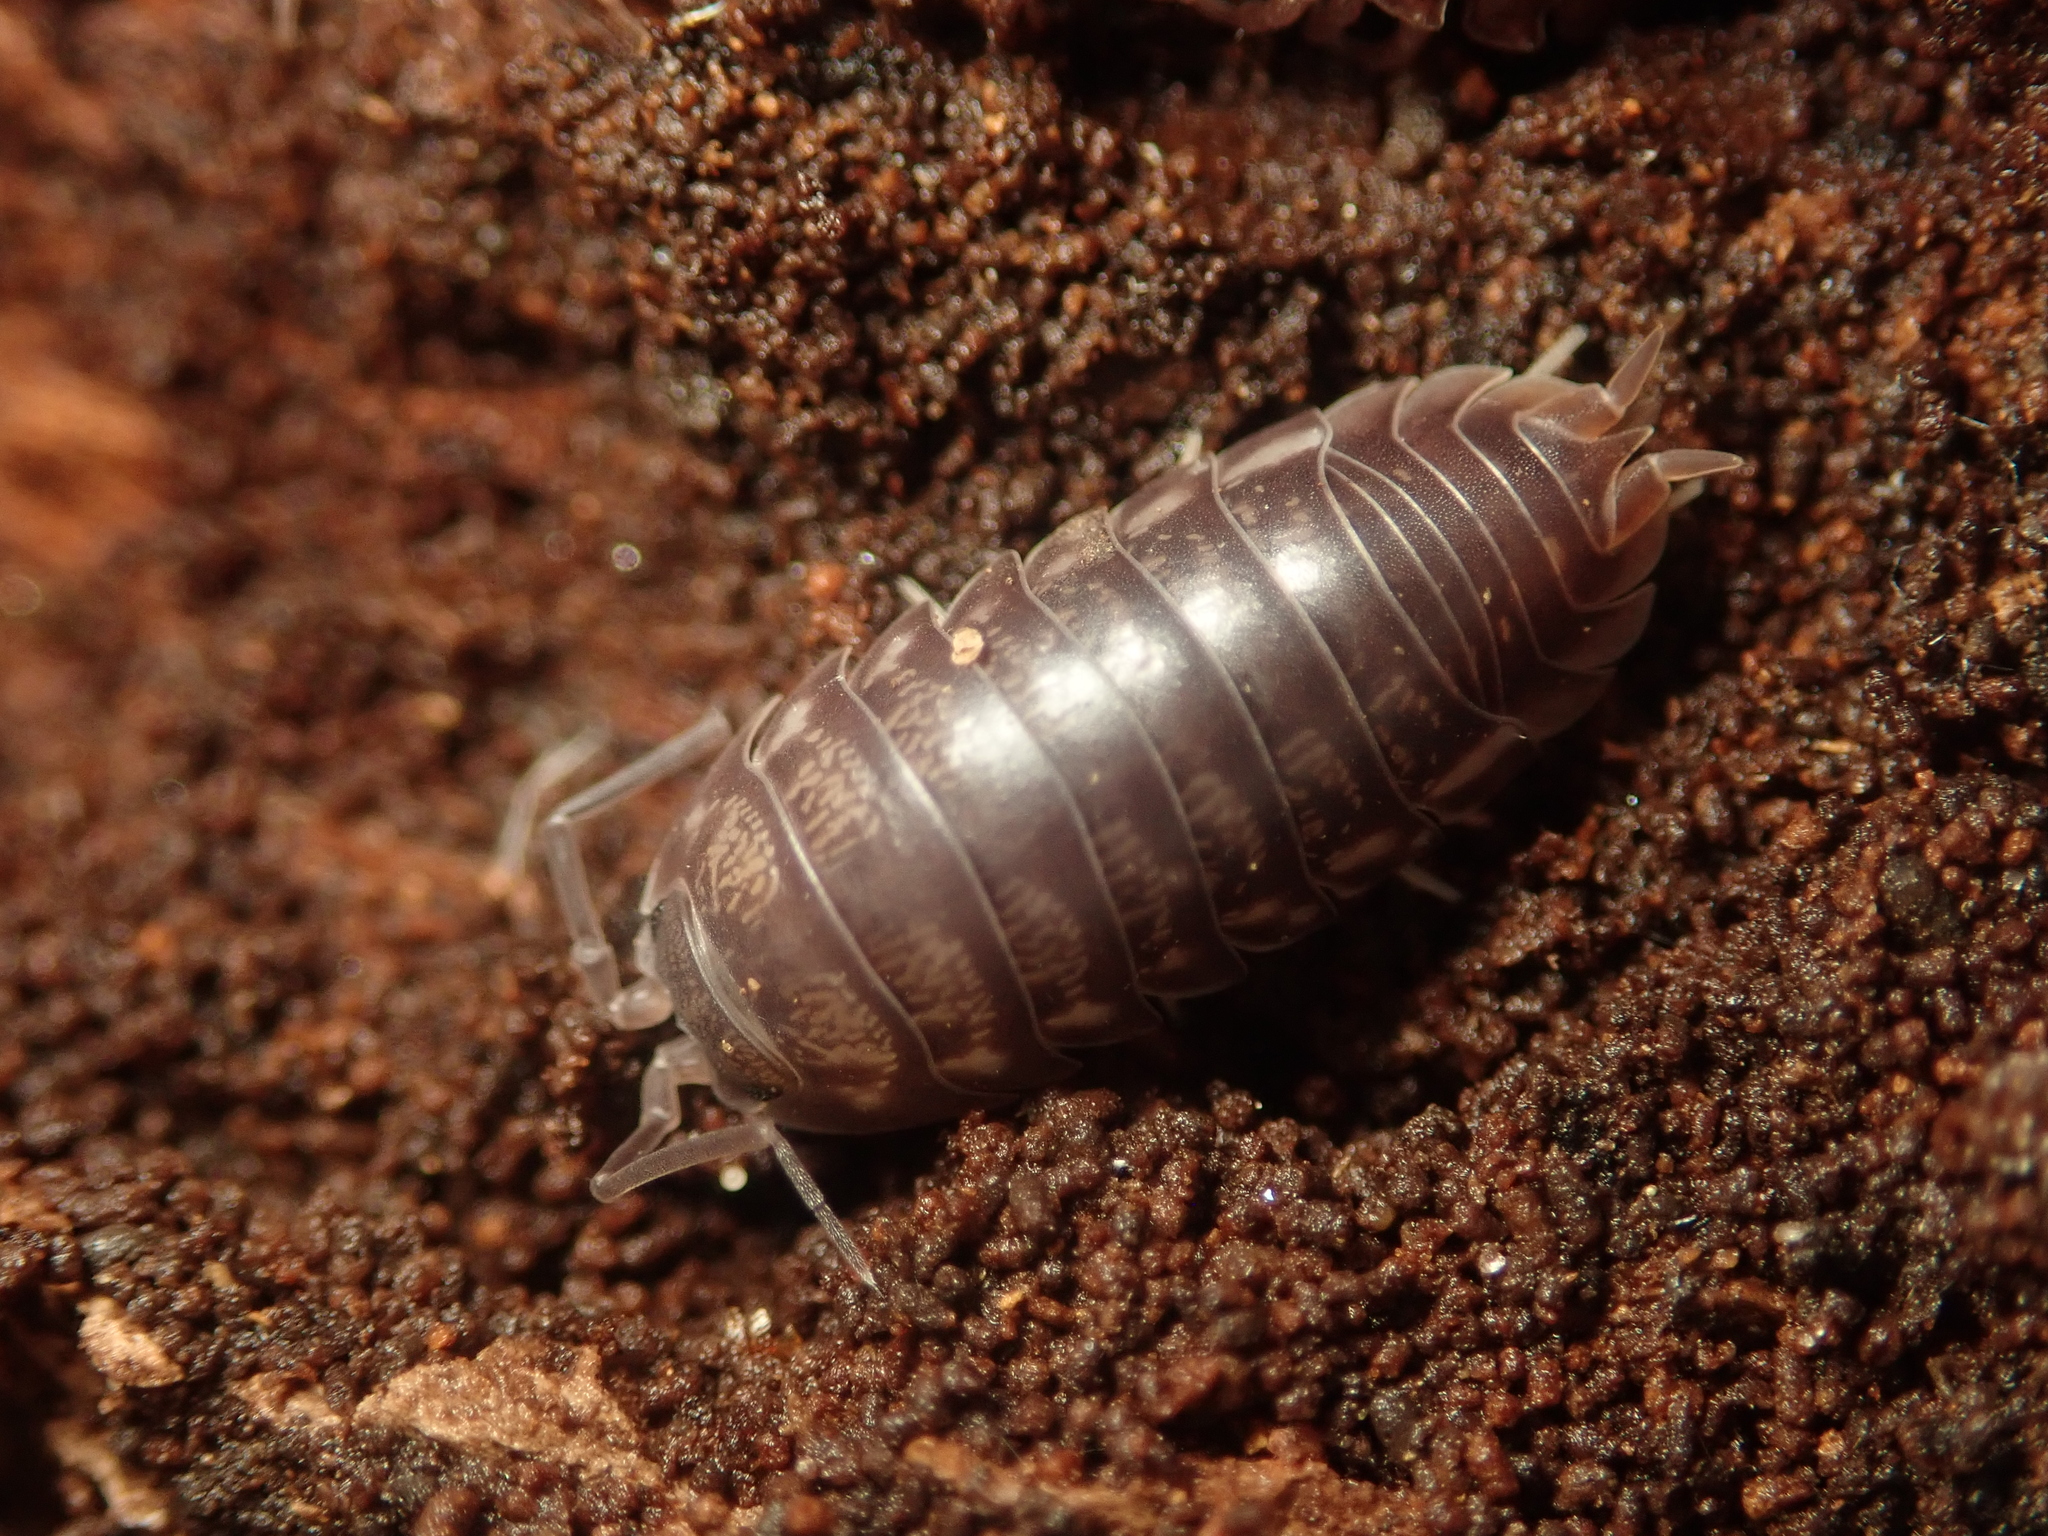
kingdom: Animalia
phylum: Arthropoda
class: Malacostraca
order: Isopoda
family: Cylisticidae
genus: Cylisticus
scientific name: Cylisticus convexus
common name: Curly woodlouse
